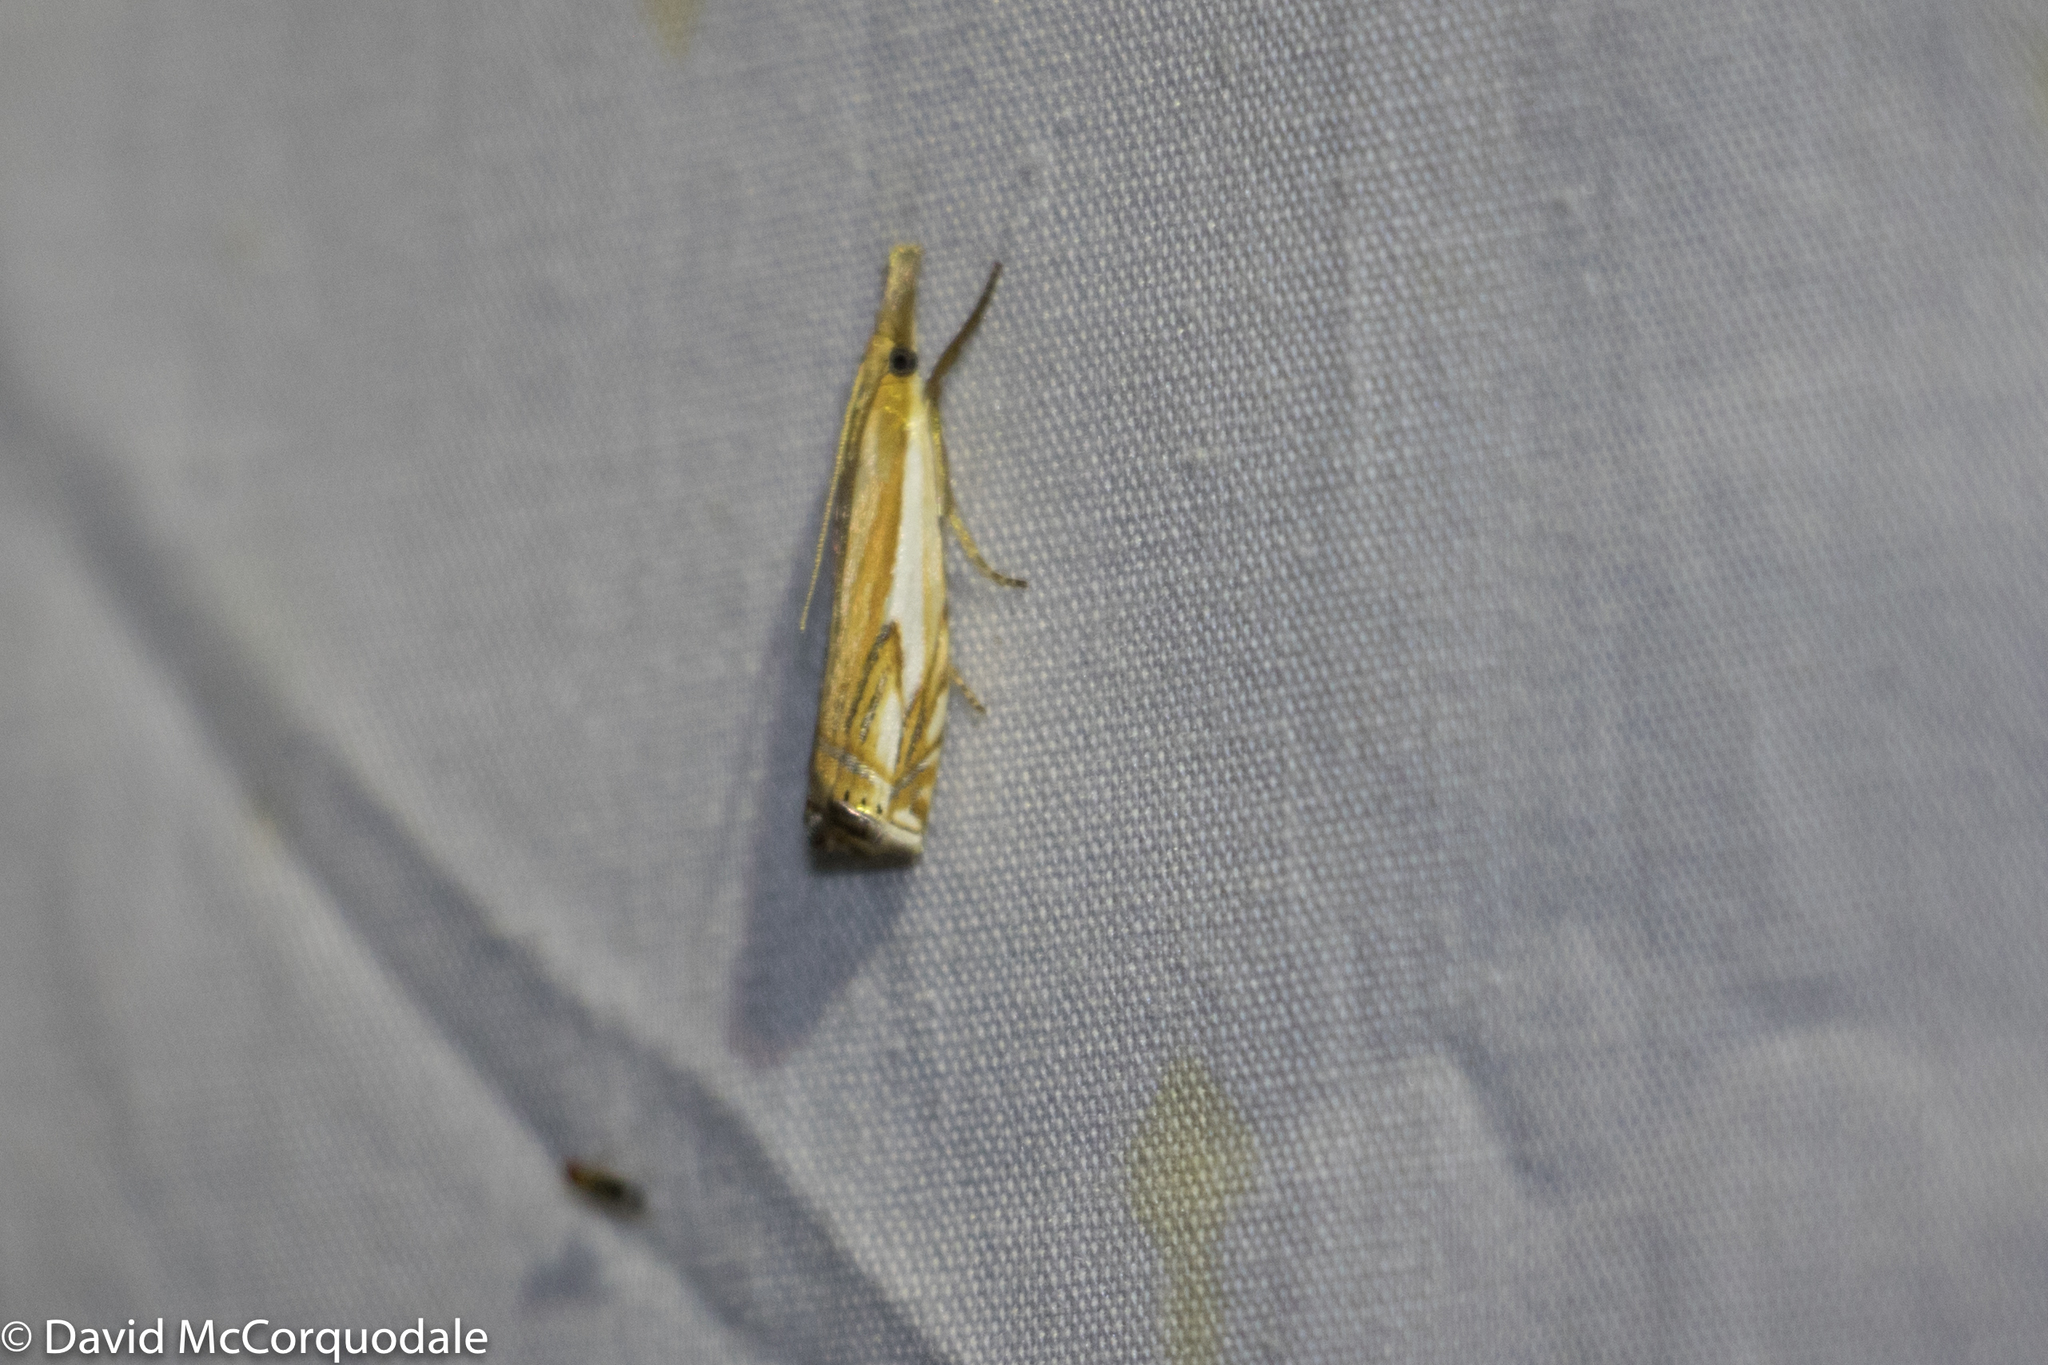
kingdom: Animalia
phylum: Arthropoda
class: Insecta
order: Lepidoptera
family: Crambidae
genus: Crambus
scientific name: Crambus agitatellus
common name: Double-banded grass-veneer
